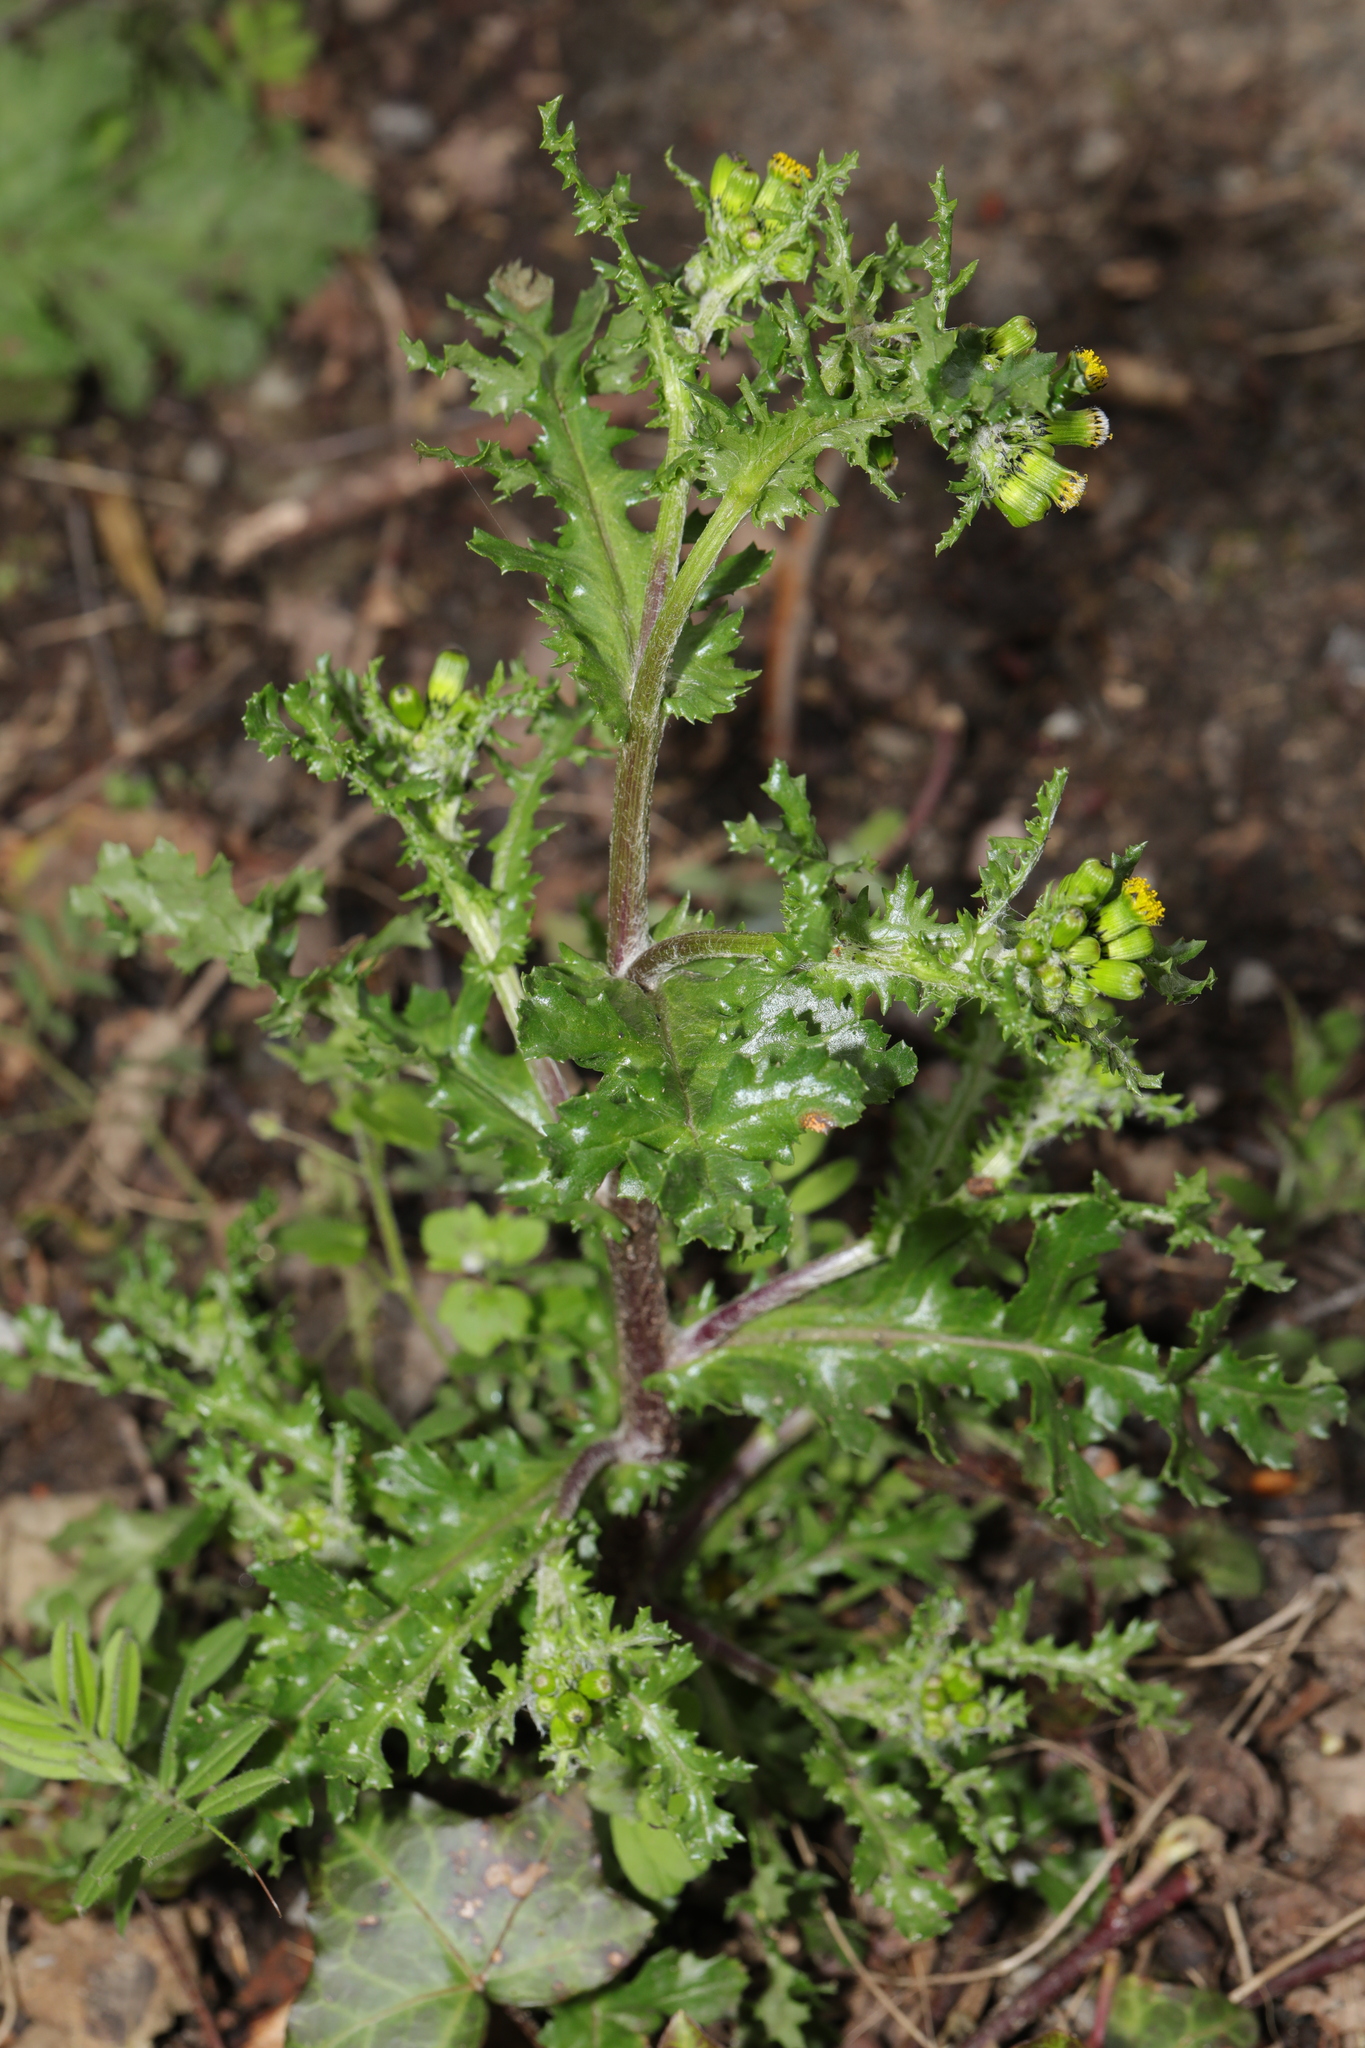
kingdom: Plantae
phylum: Tracheophyta
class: Magnoliopsida
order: Asterales
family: Asteraceae
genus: Senecio
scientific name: Senecio vulgaris
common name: Old-man-in-the-spring
